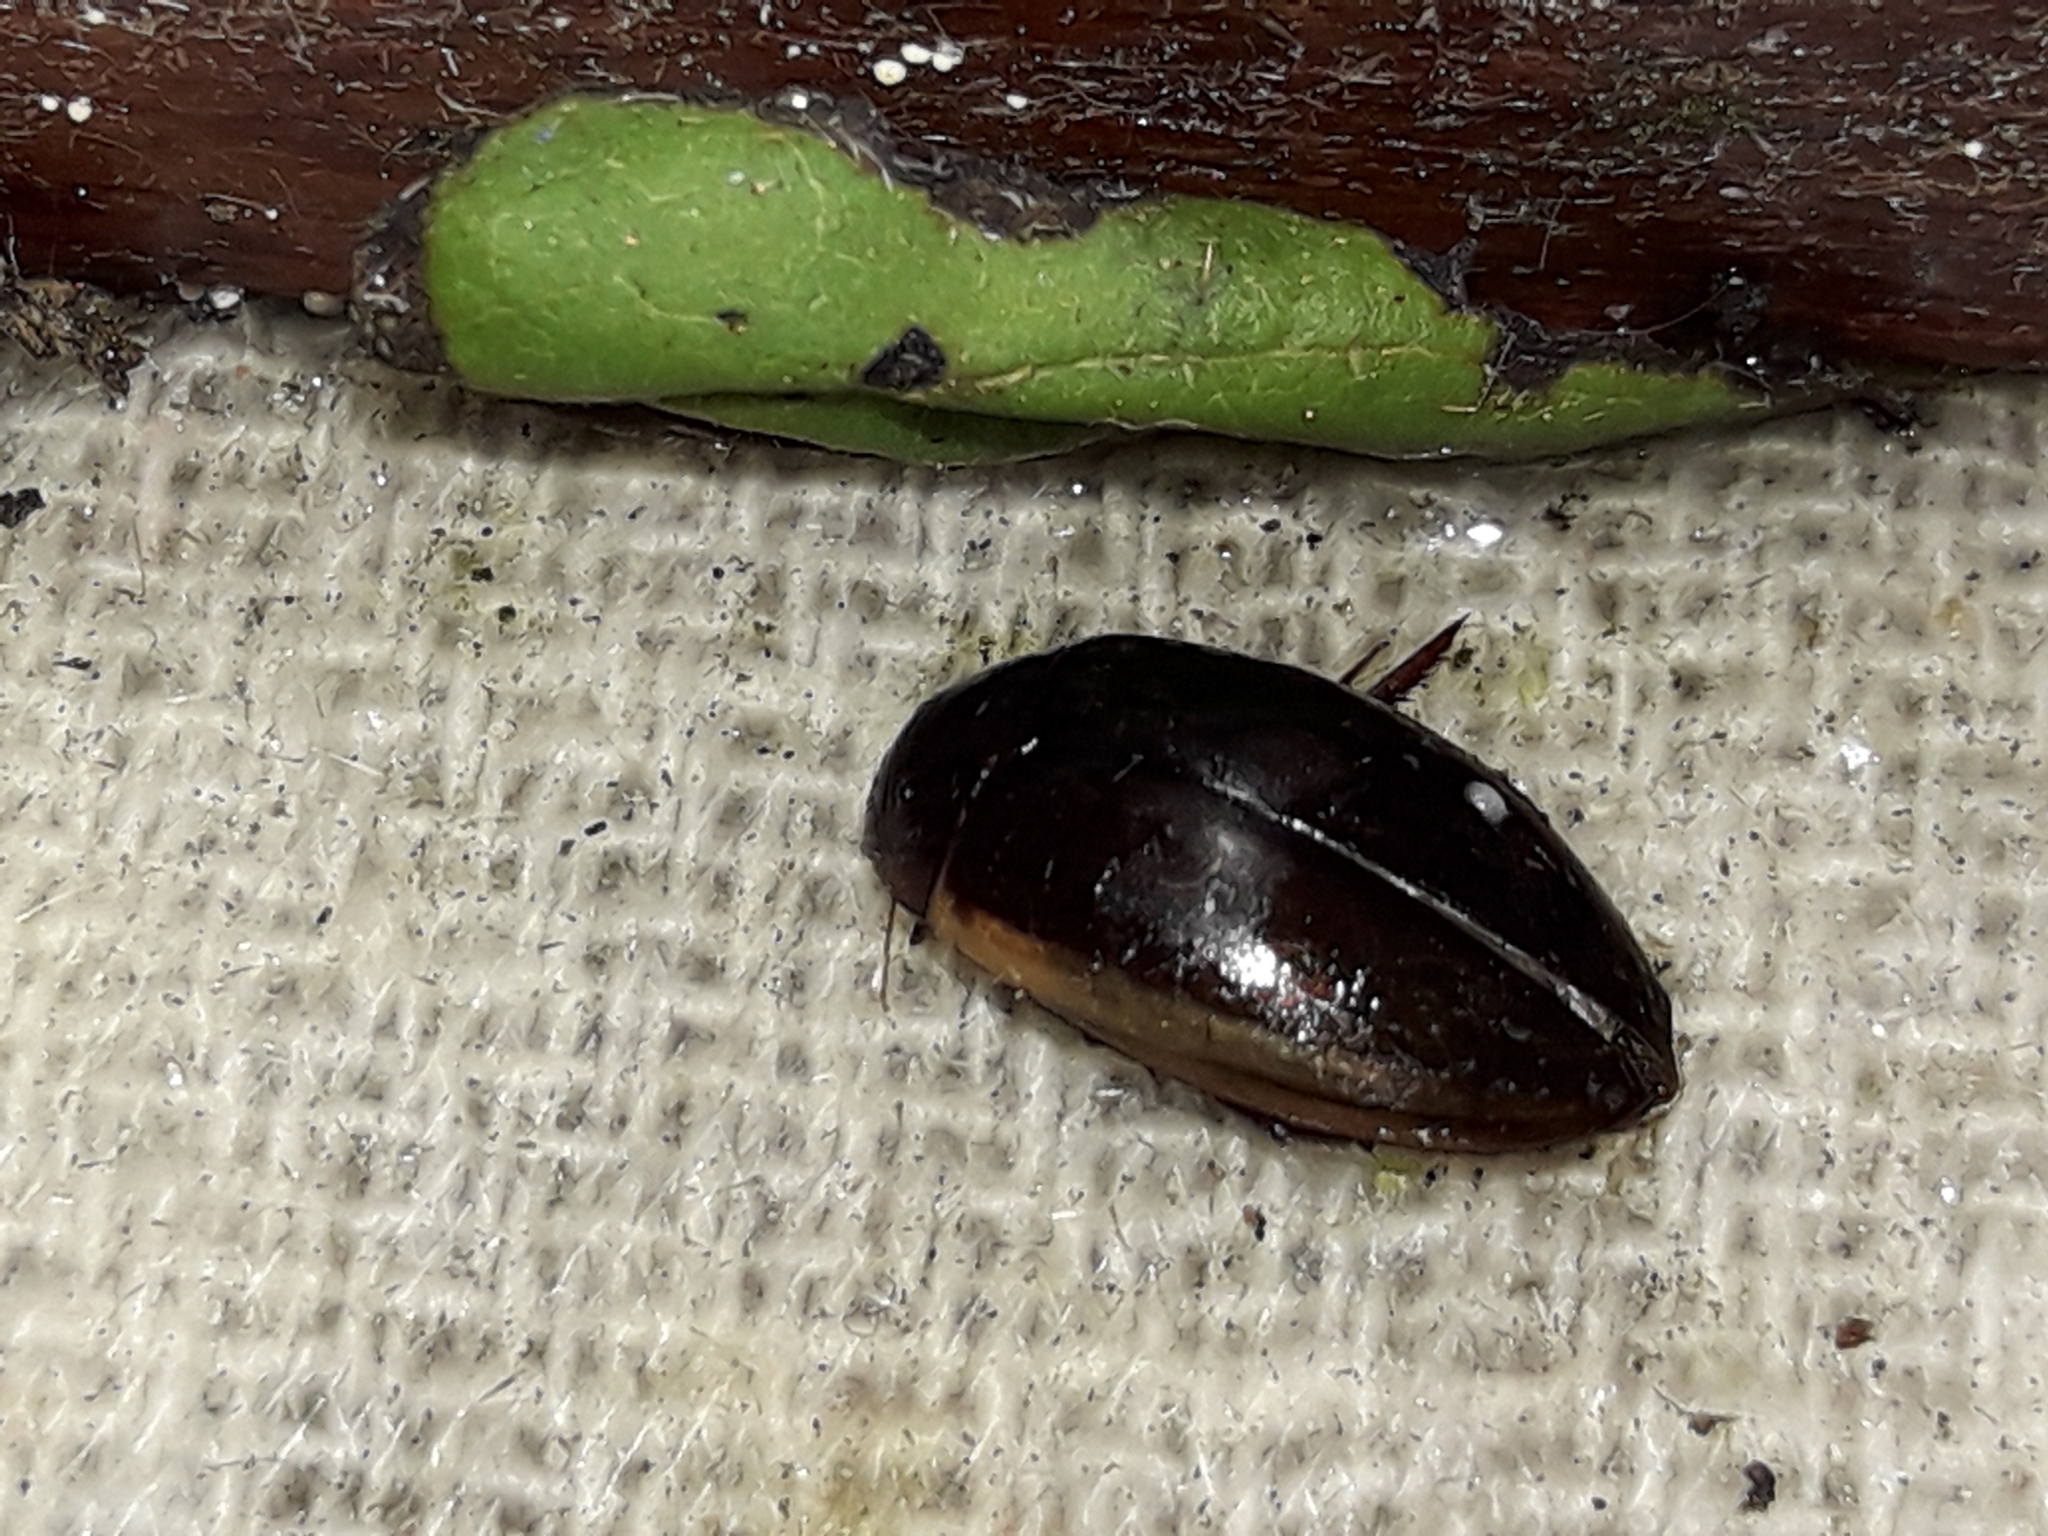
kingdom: Animalia
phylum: Arthropoda
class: Insecta
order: Coleoptera
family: Dytiscidae
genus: Ilybius
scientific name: Ilybius fuliginosus
